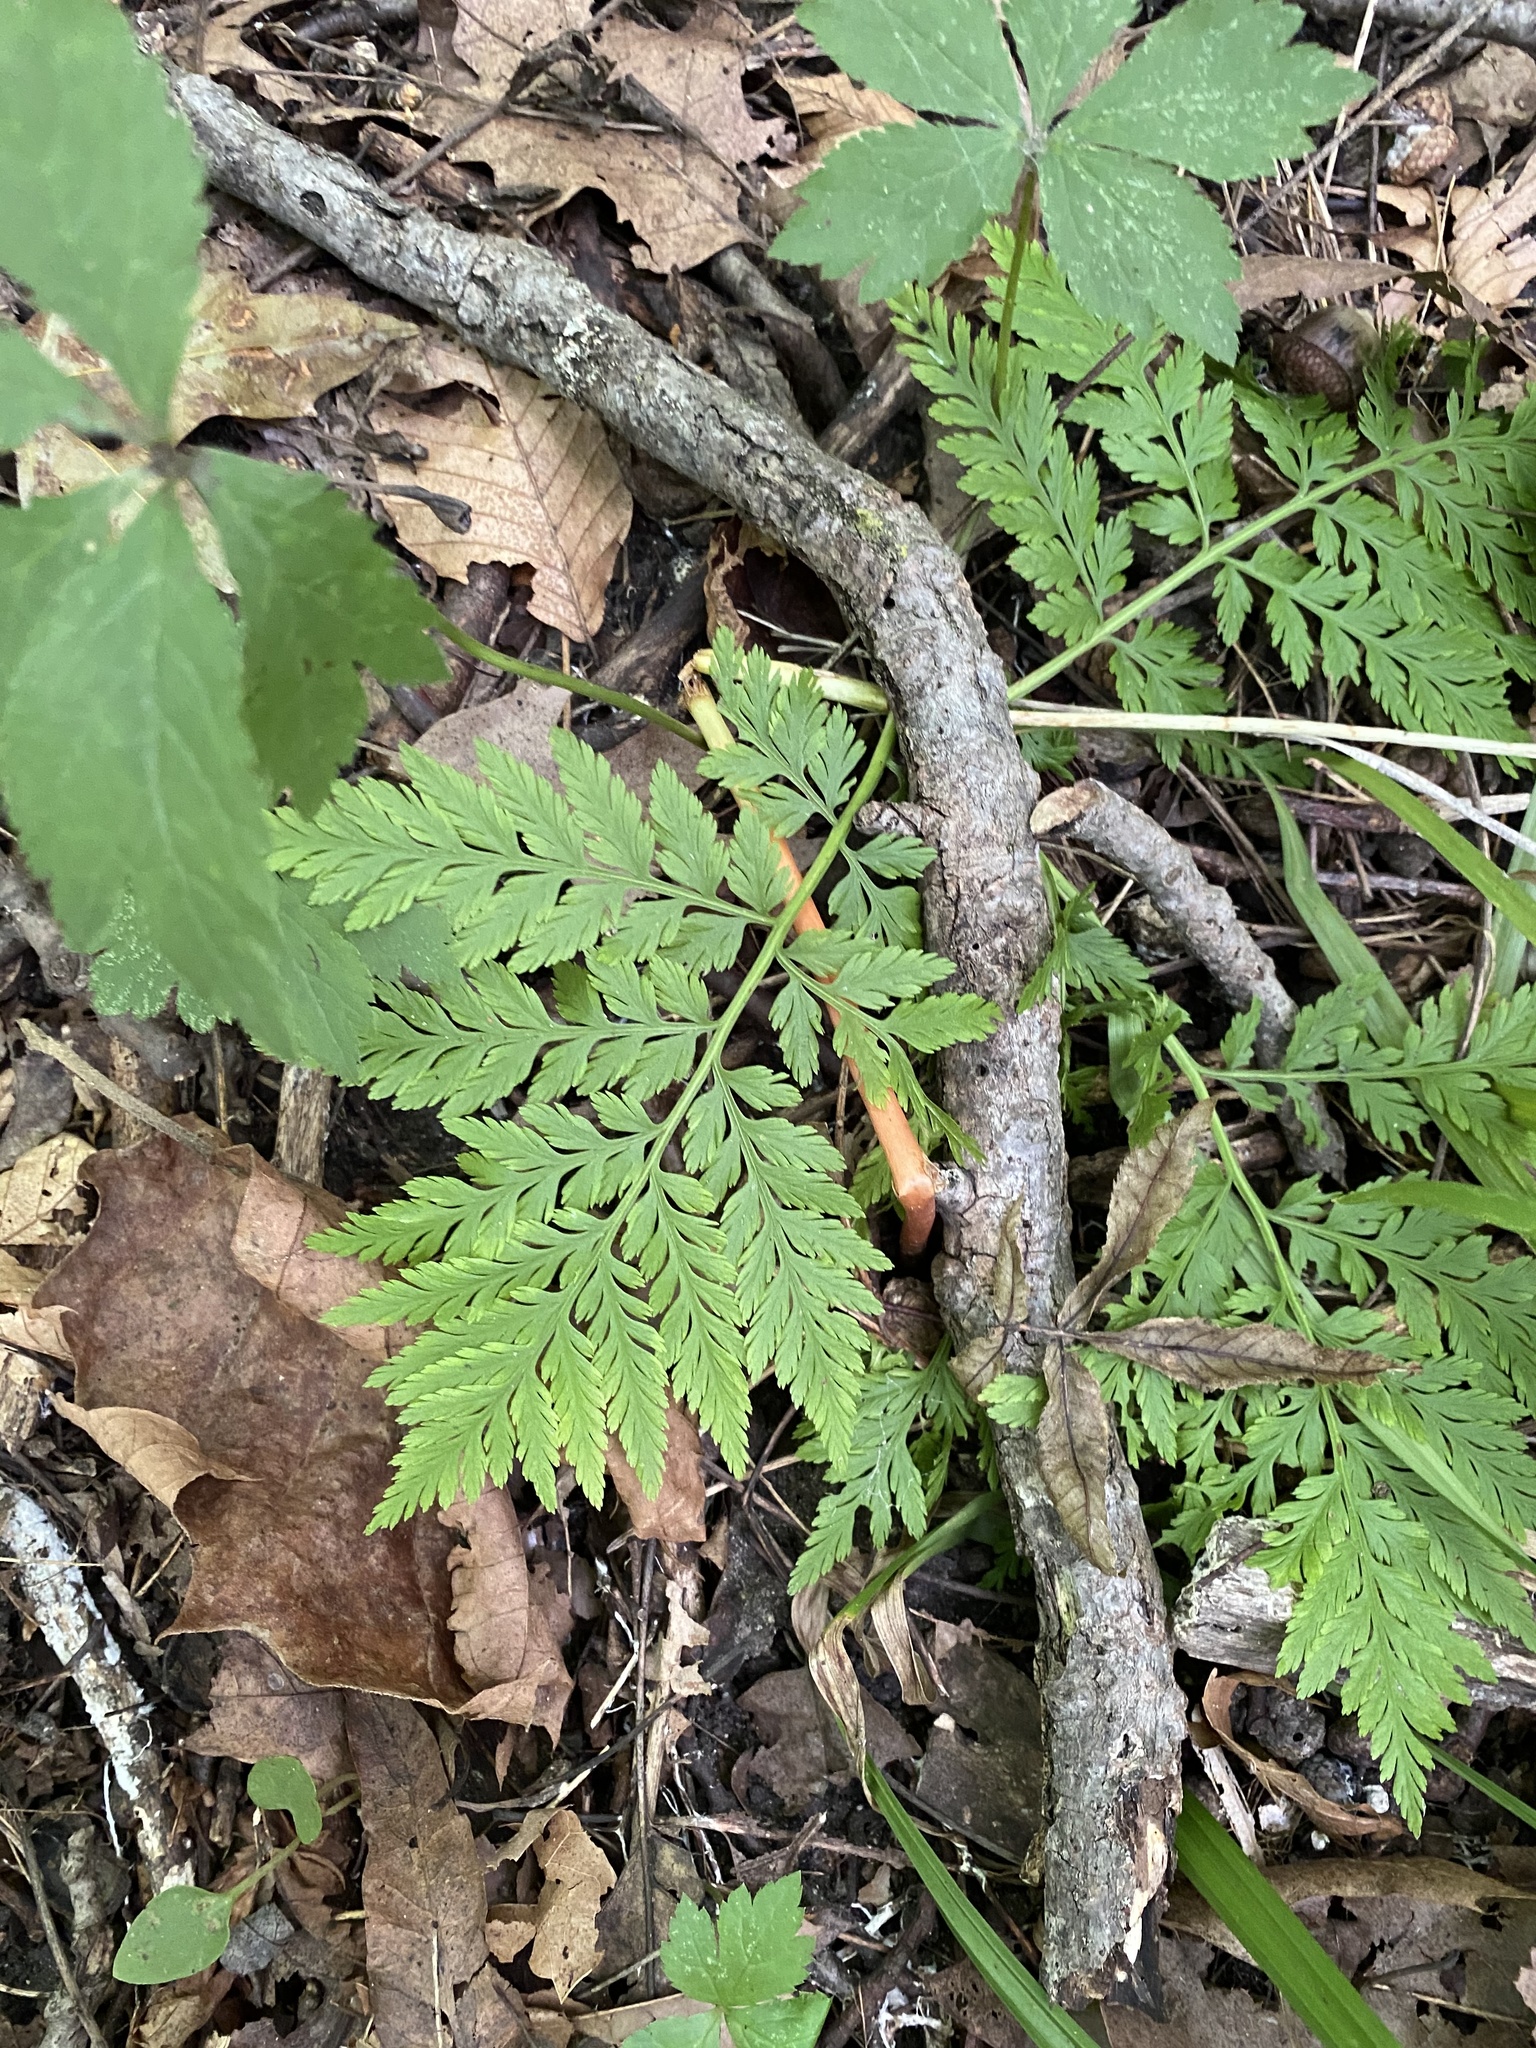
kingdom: Plantae
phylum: Tracheophyta
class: Polypodiopsida
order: Ophioglossales
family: Ophioglossaceae
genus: Botrypus
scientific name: Botrypus virginianus
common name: Common grapefern
